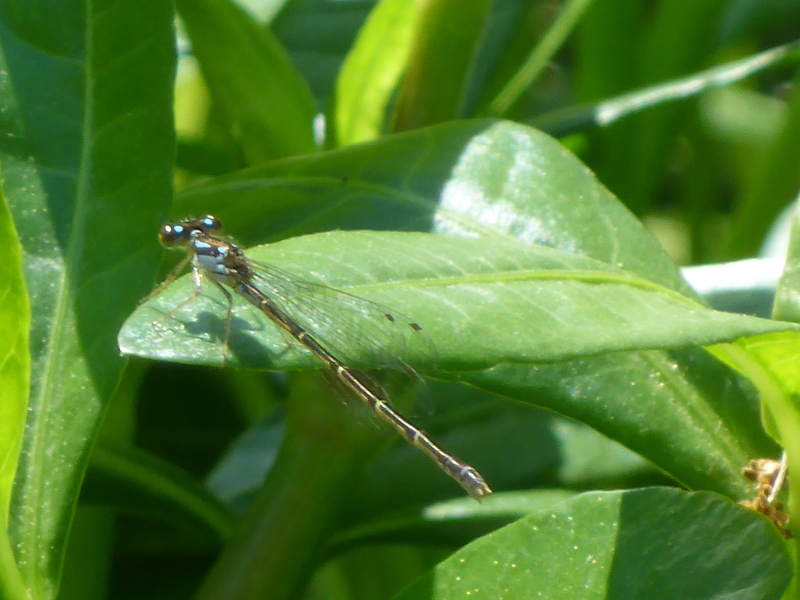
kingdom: Animalia
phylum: Arthropoda
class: Insecta
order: Odonata
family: Coenagrionidae
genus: Ischnura
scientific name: Ischnura posita
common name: Fragile forktail
